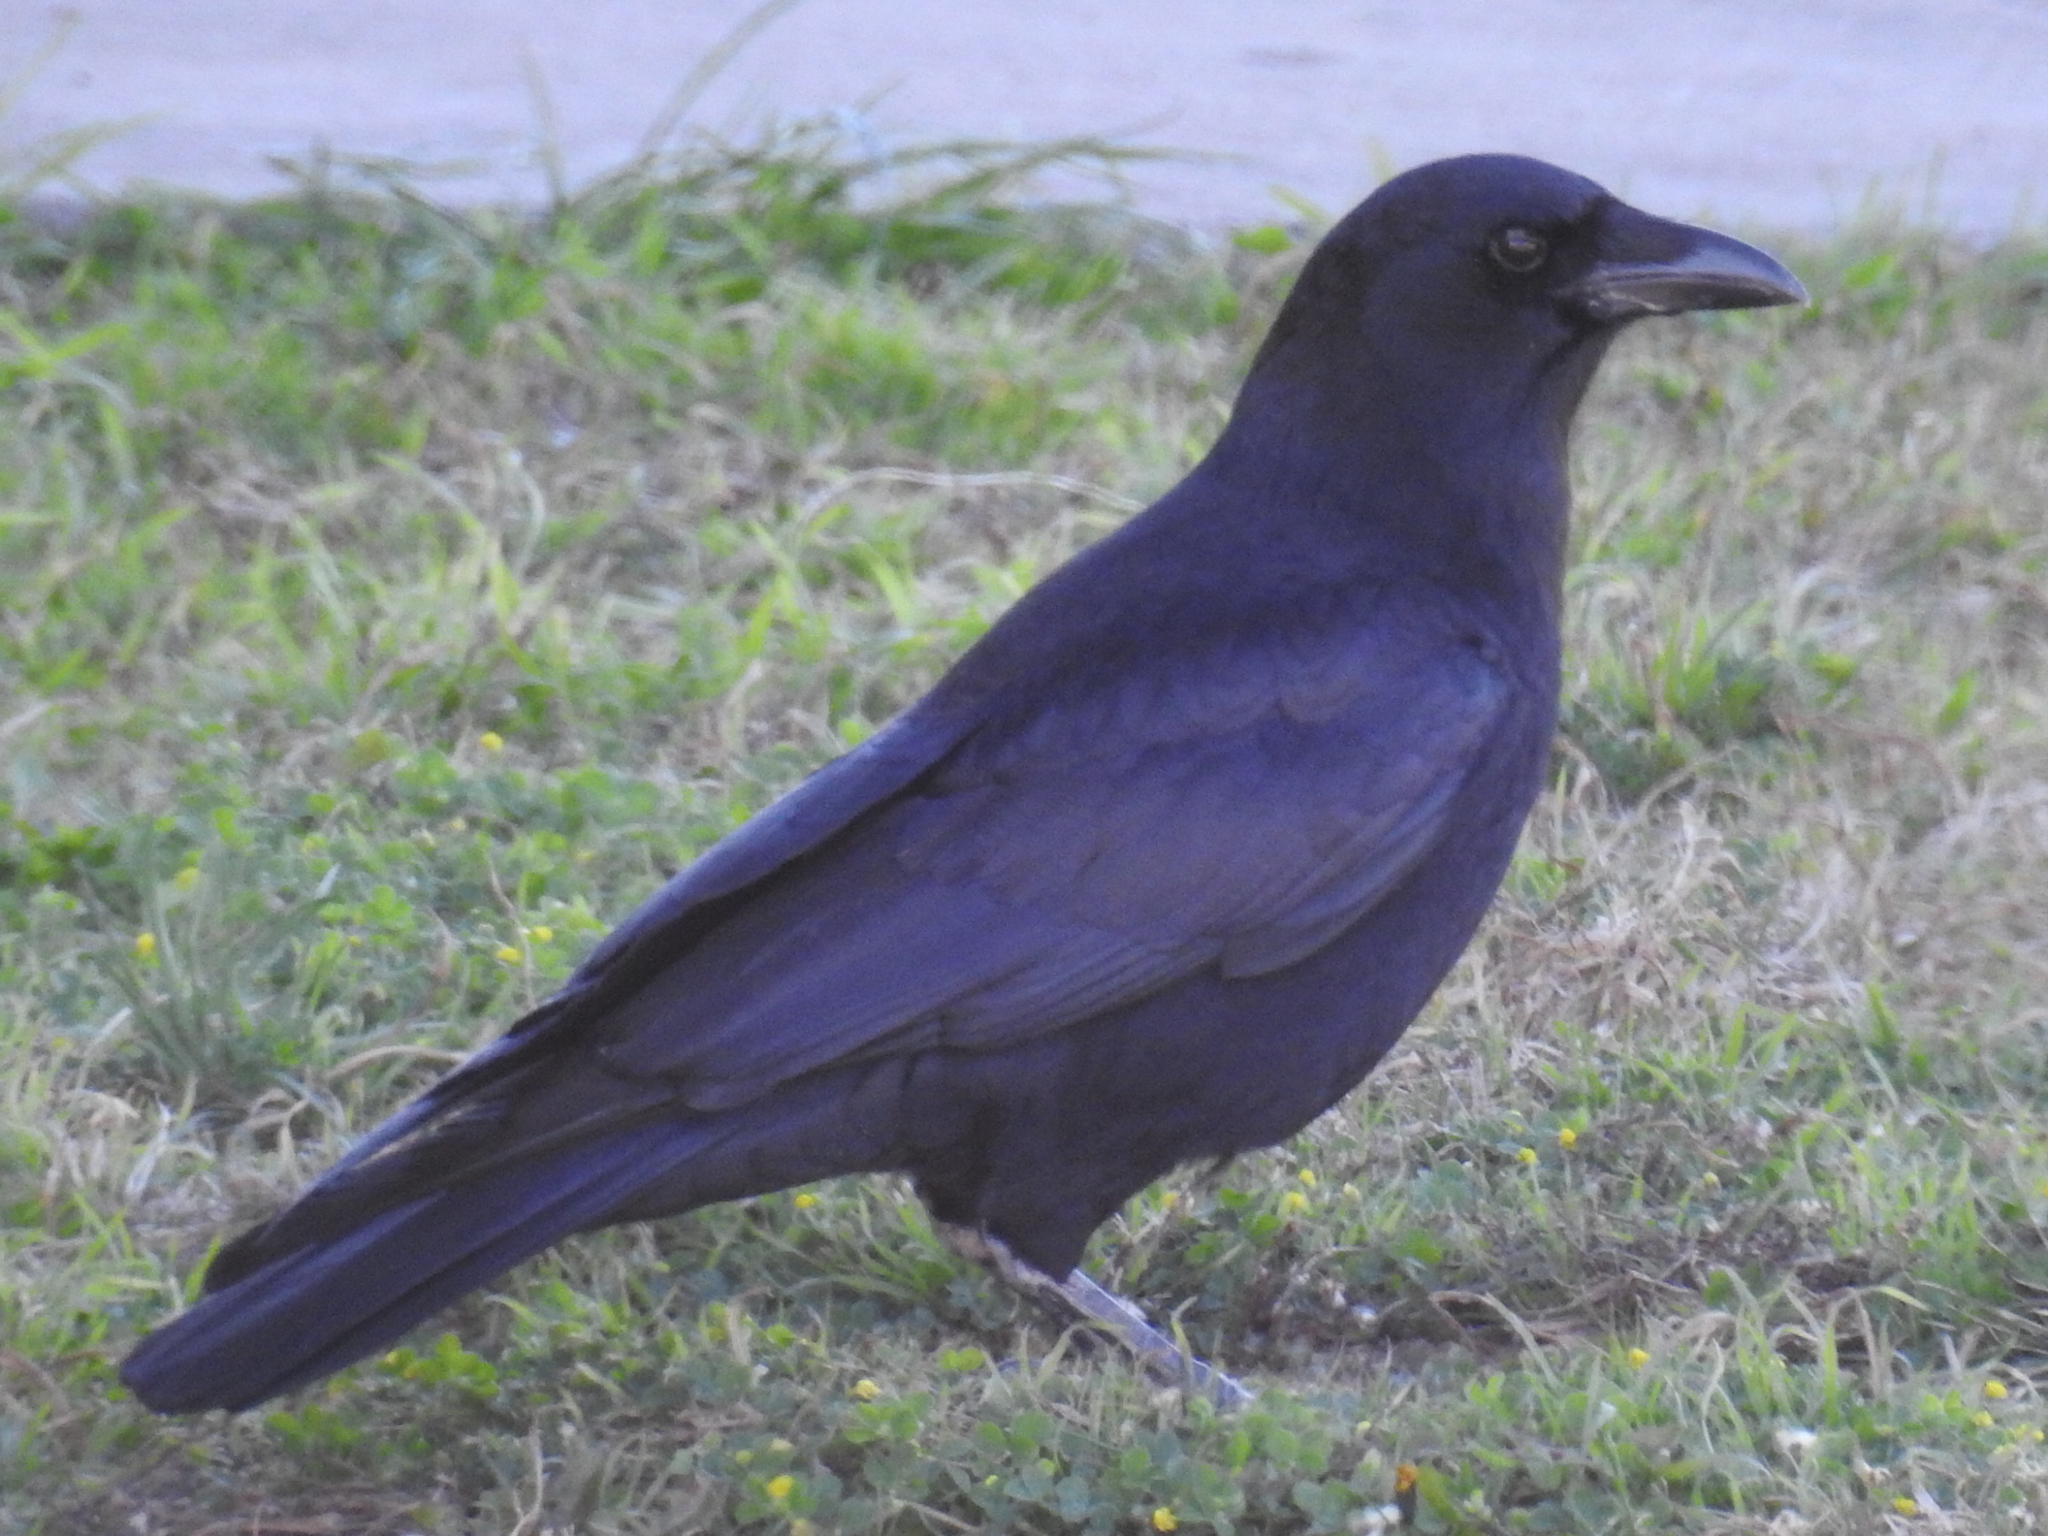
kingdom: Animalia
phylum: Chordata
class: Aves
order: Passeriformes
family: Corvidae
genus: Corvus
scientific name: Corvus brachyrhynchos
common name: American crow
